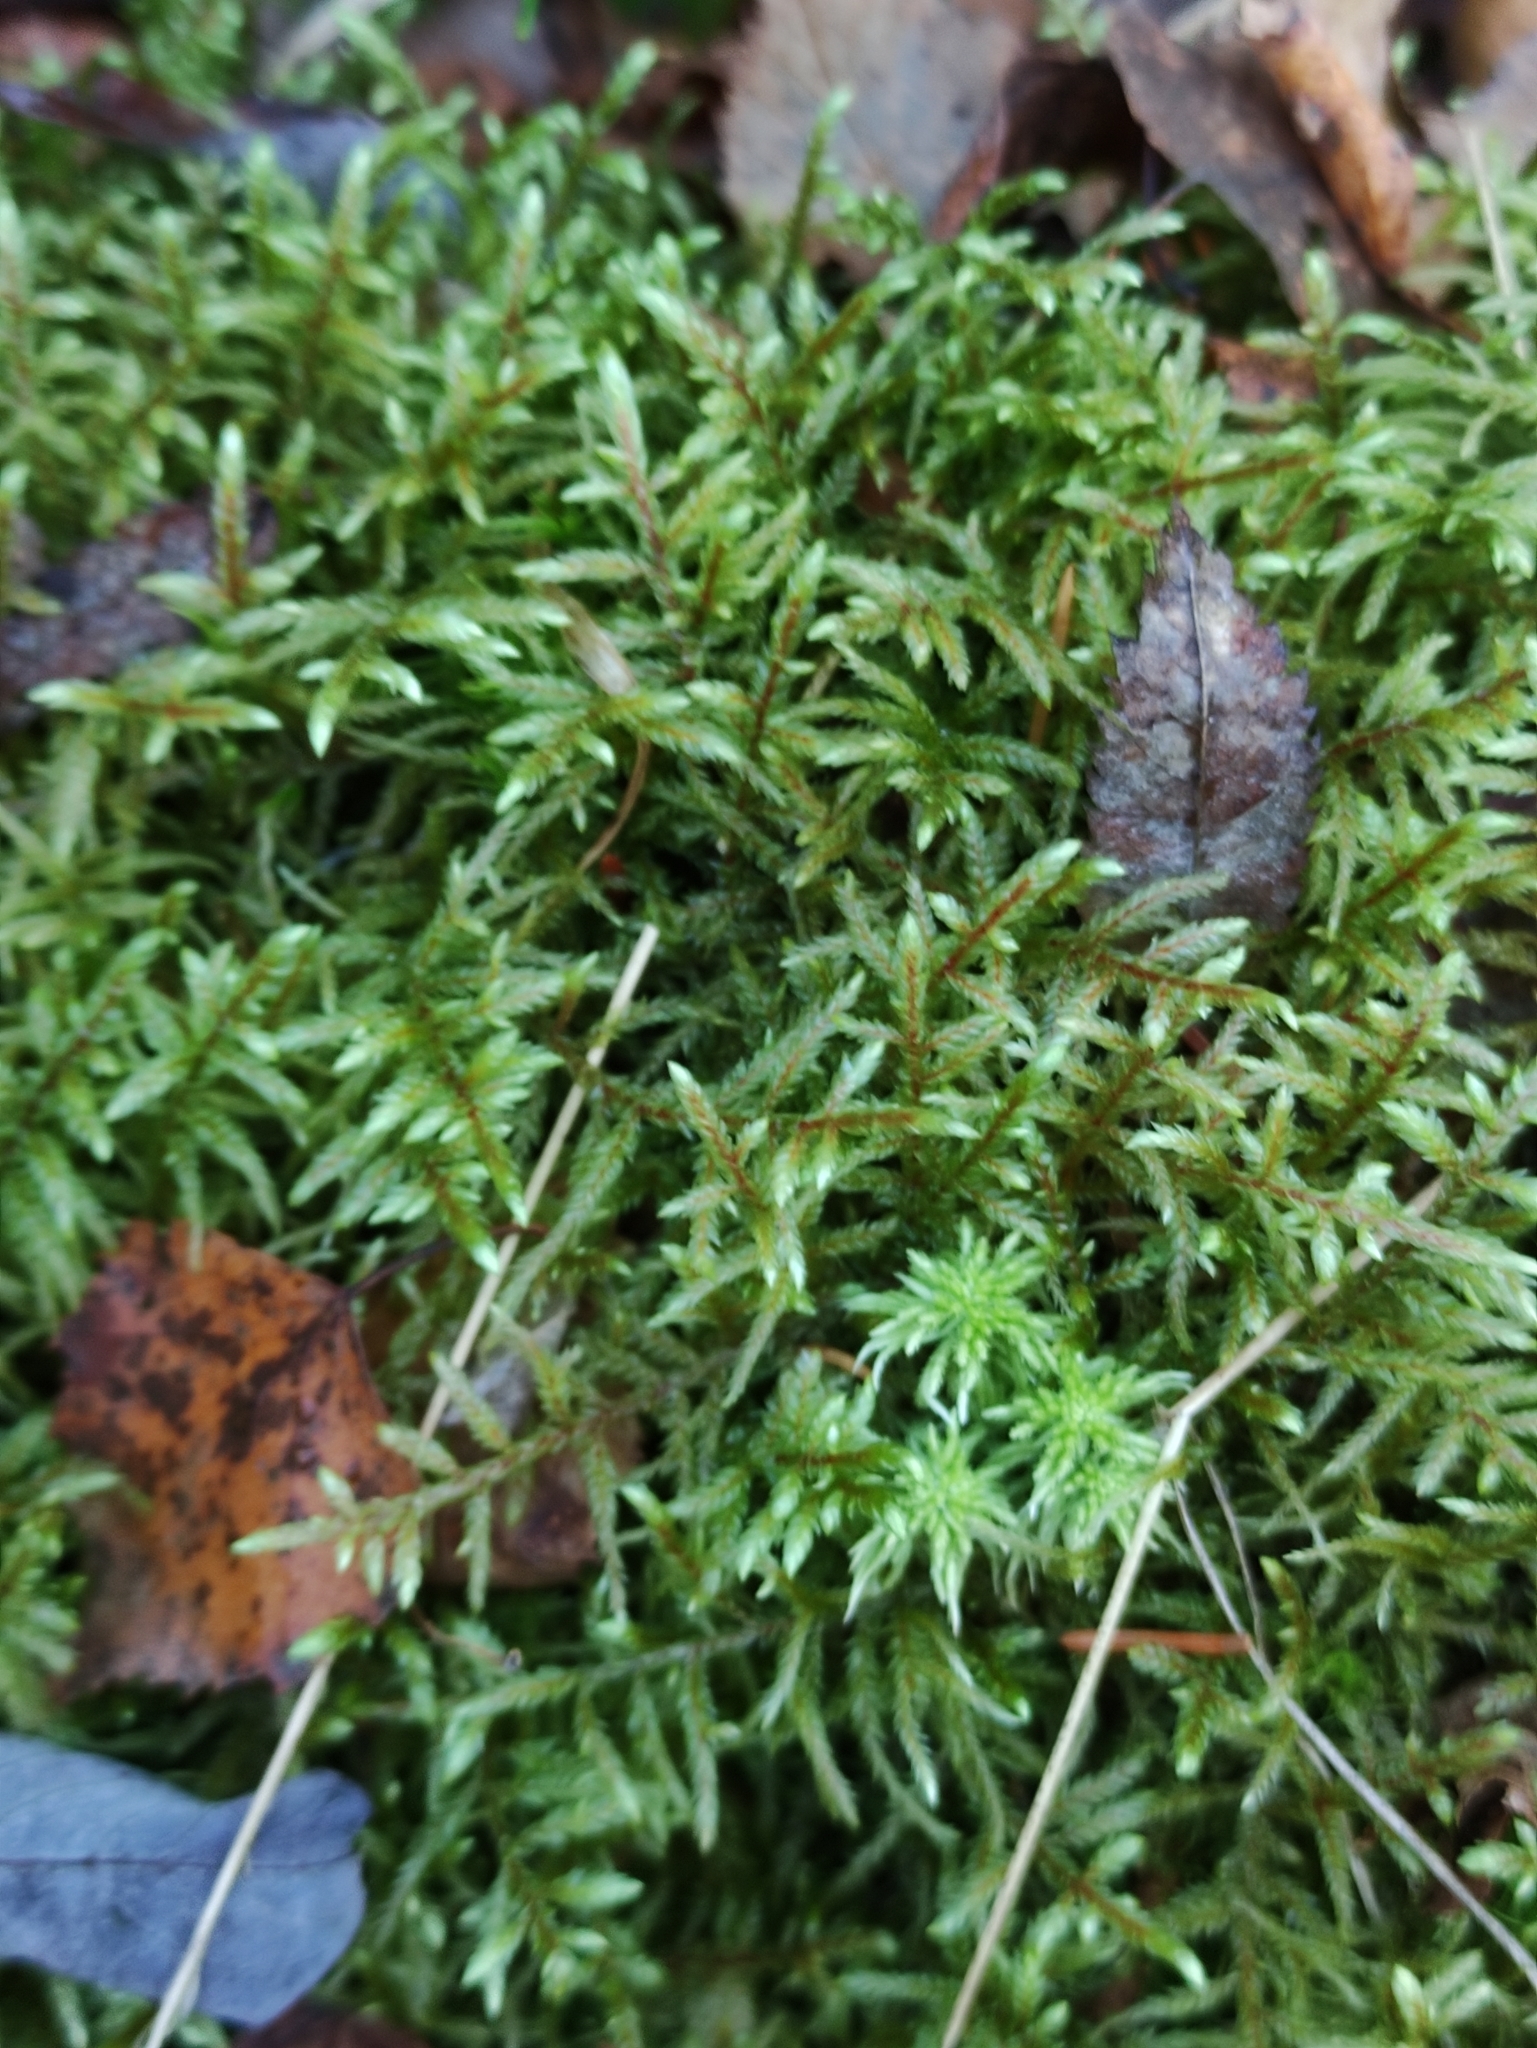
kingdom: Plantae
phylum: Bryophyta
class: Bryopsida
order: Hypnales
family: Hylocomiaceae
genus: Pleurozium
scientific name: Pleurozium schreberi
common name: Red-stemmed feather moss
